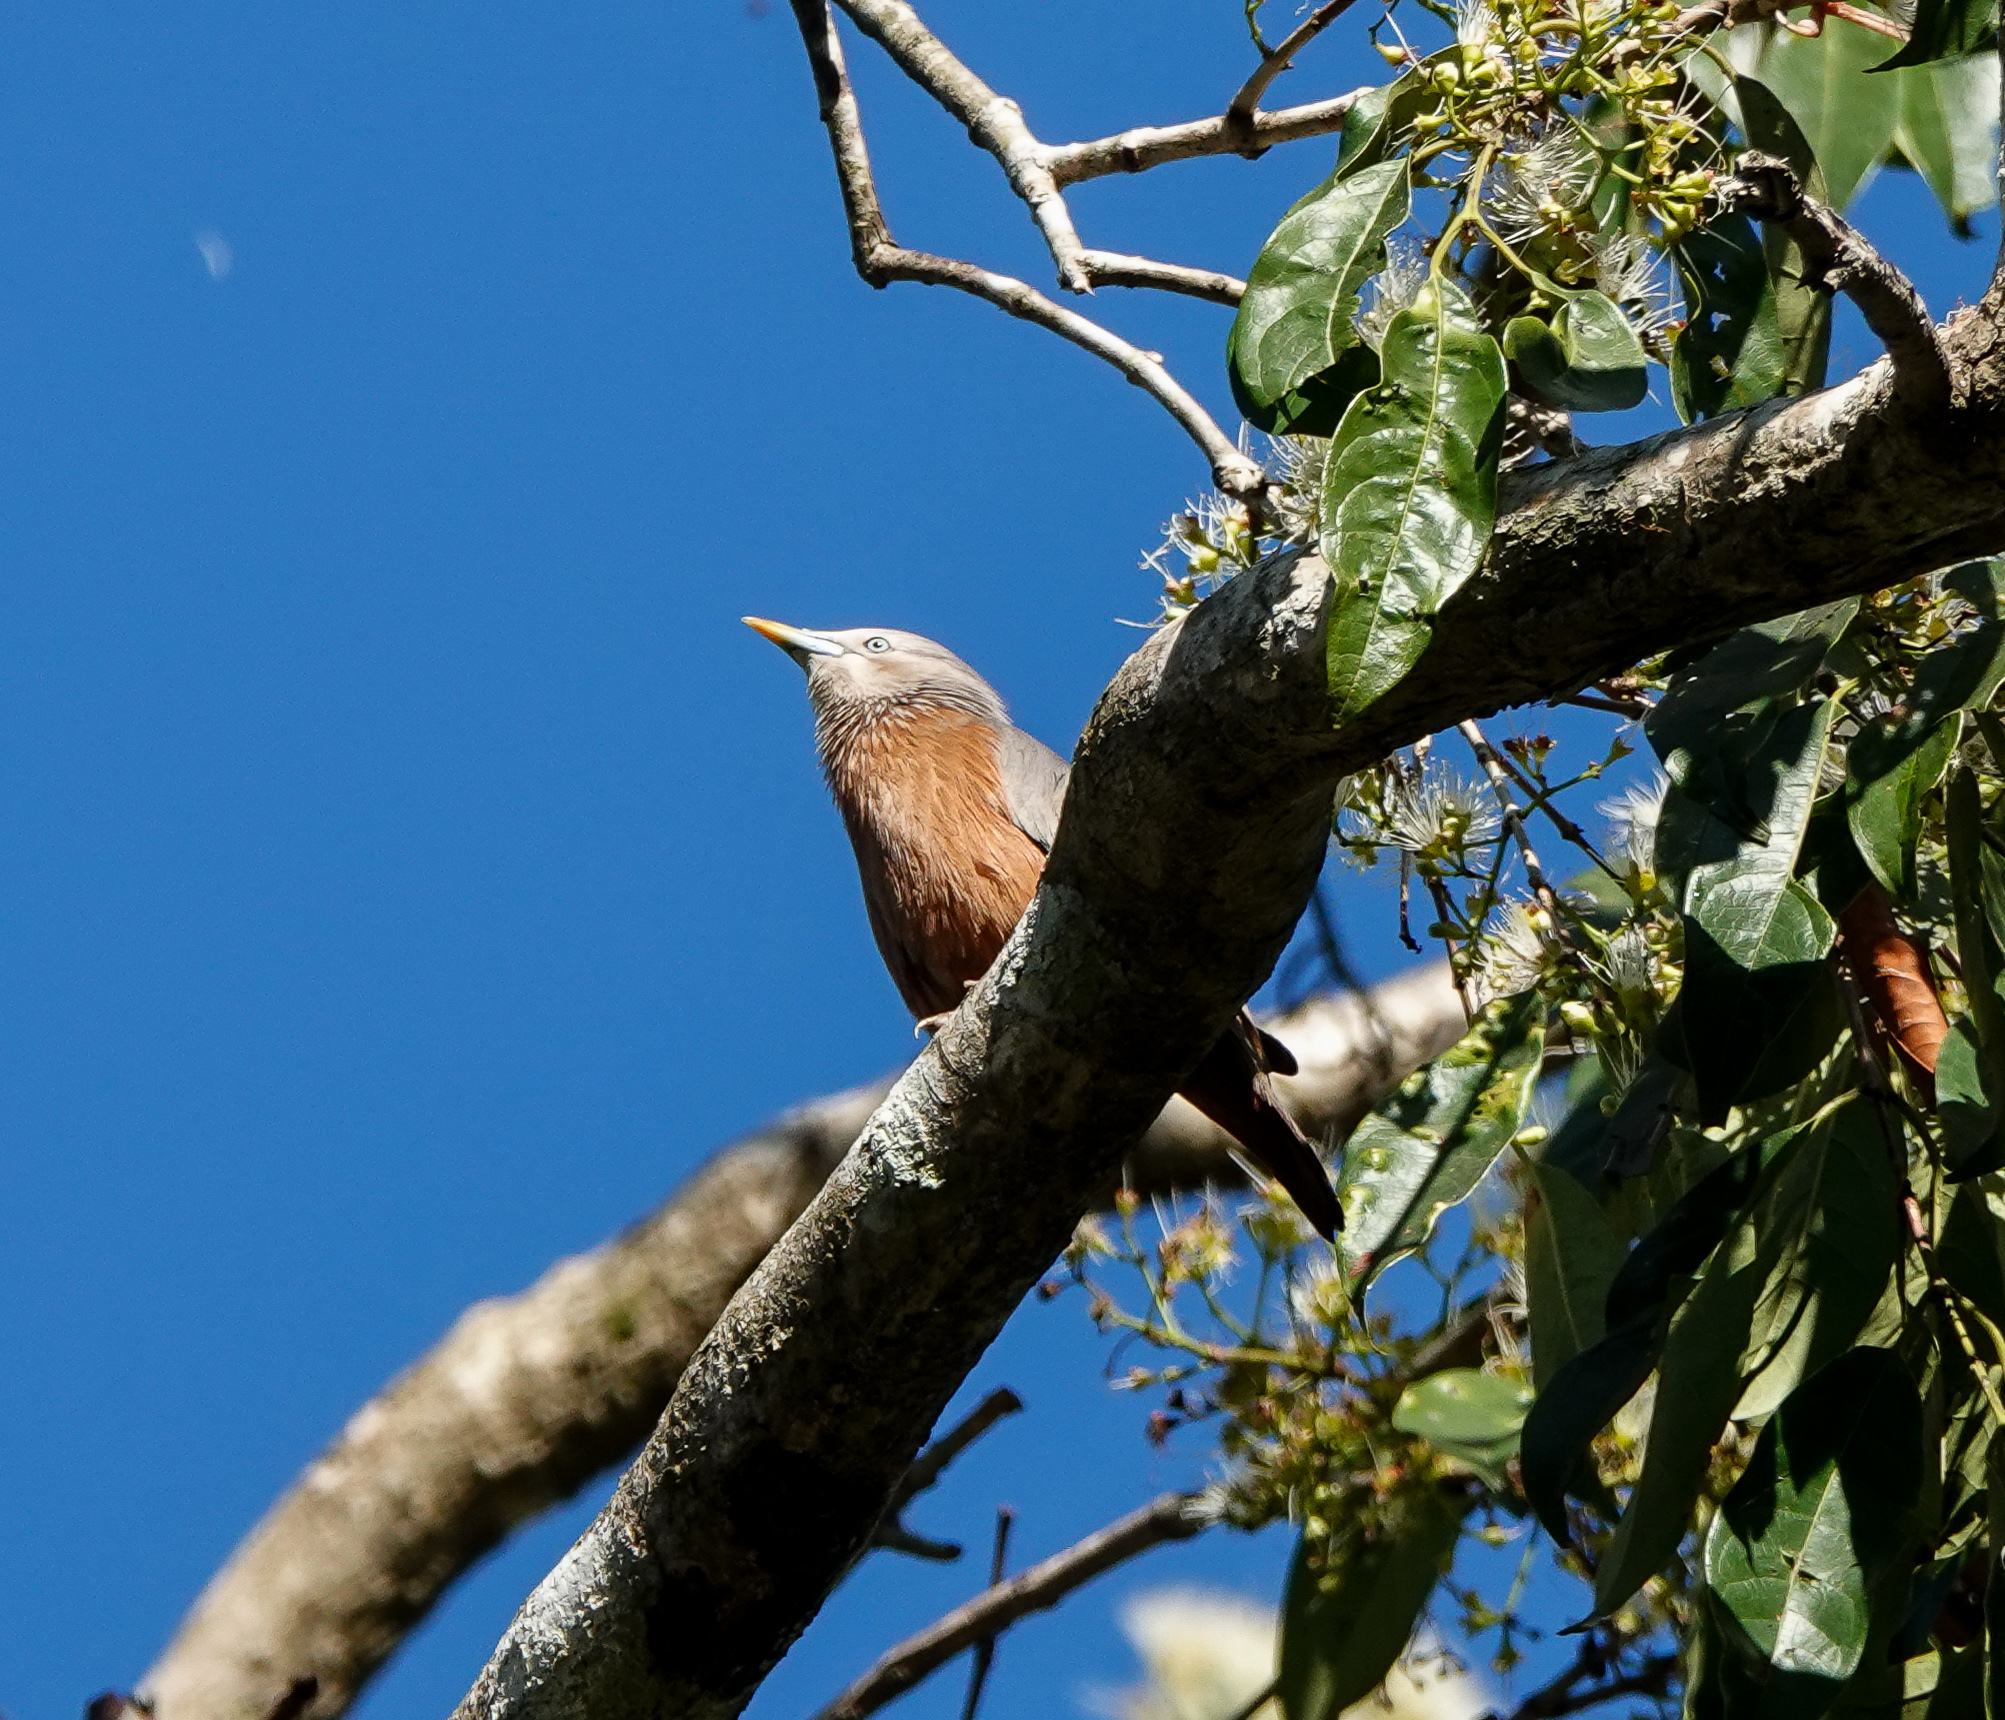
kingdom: Animalia
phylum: Chordata
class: Aves
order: Passeriformes
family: Sturnidae
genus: Sturnia
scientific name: Sturnia malabarica
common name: Chestnut-tailed starling
